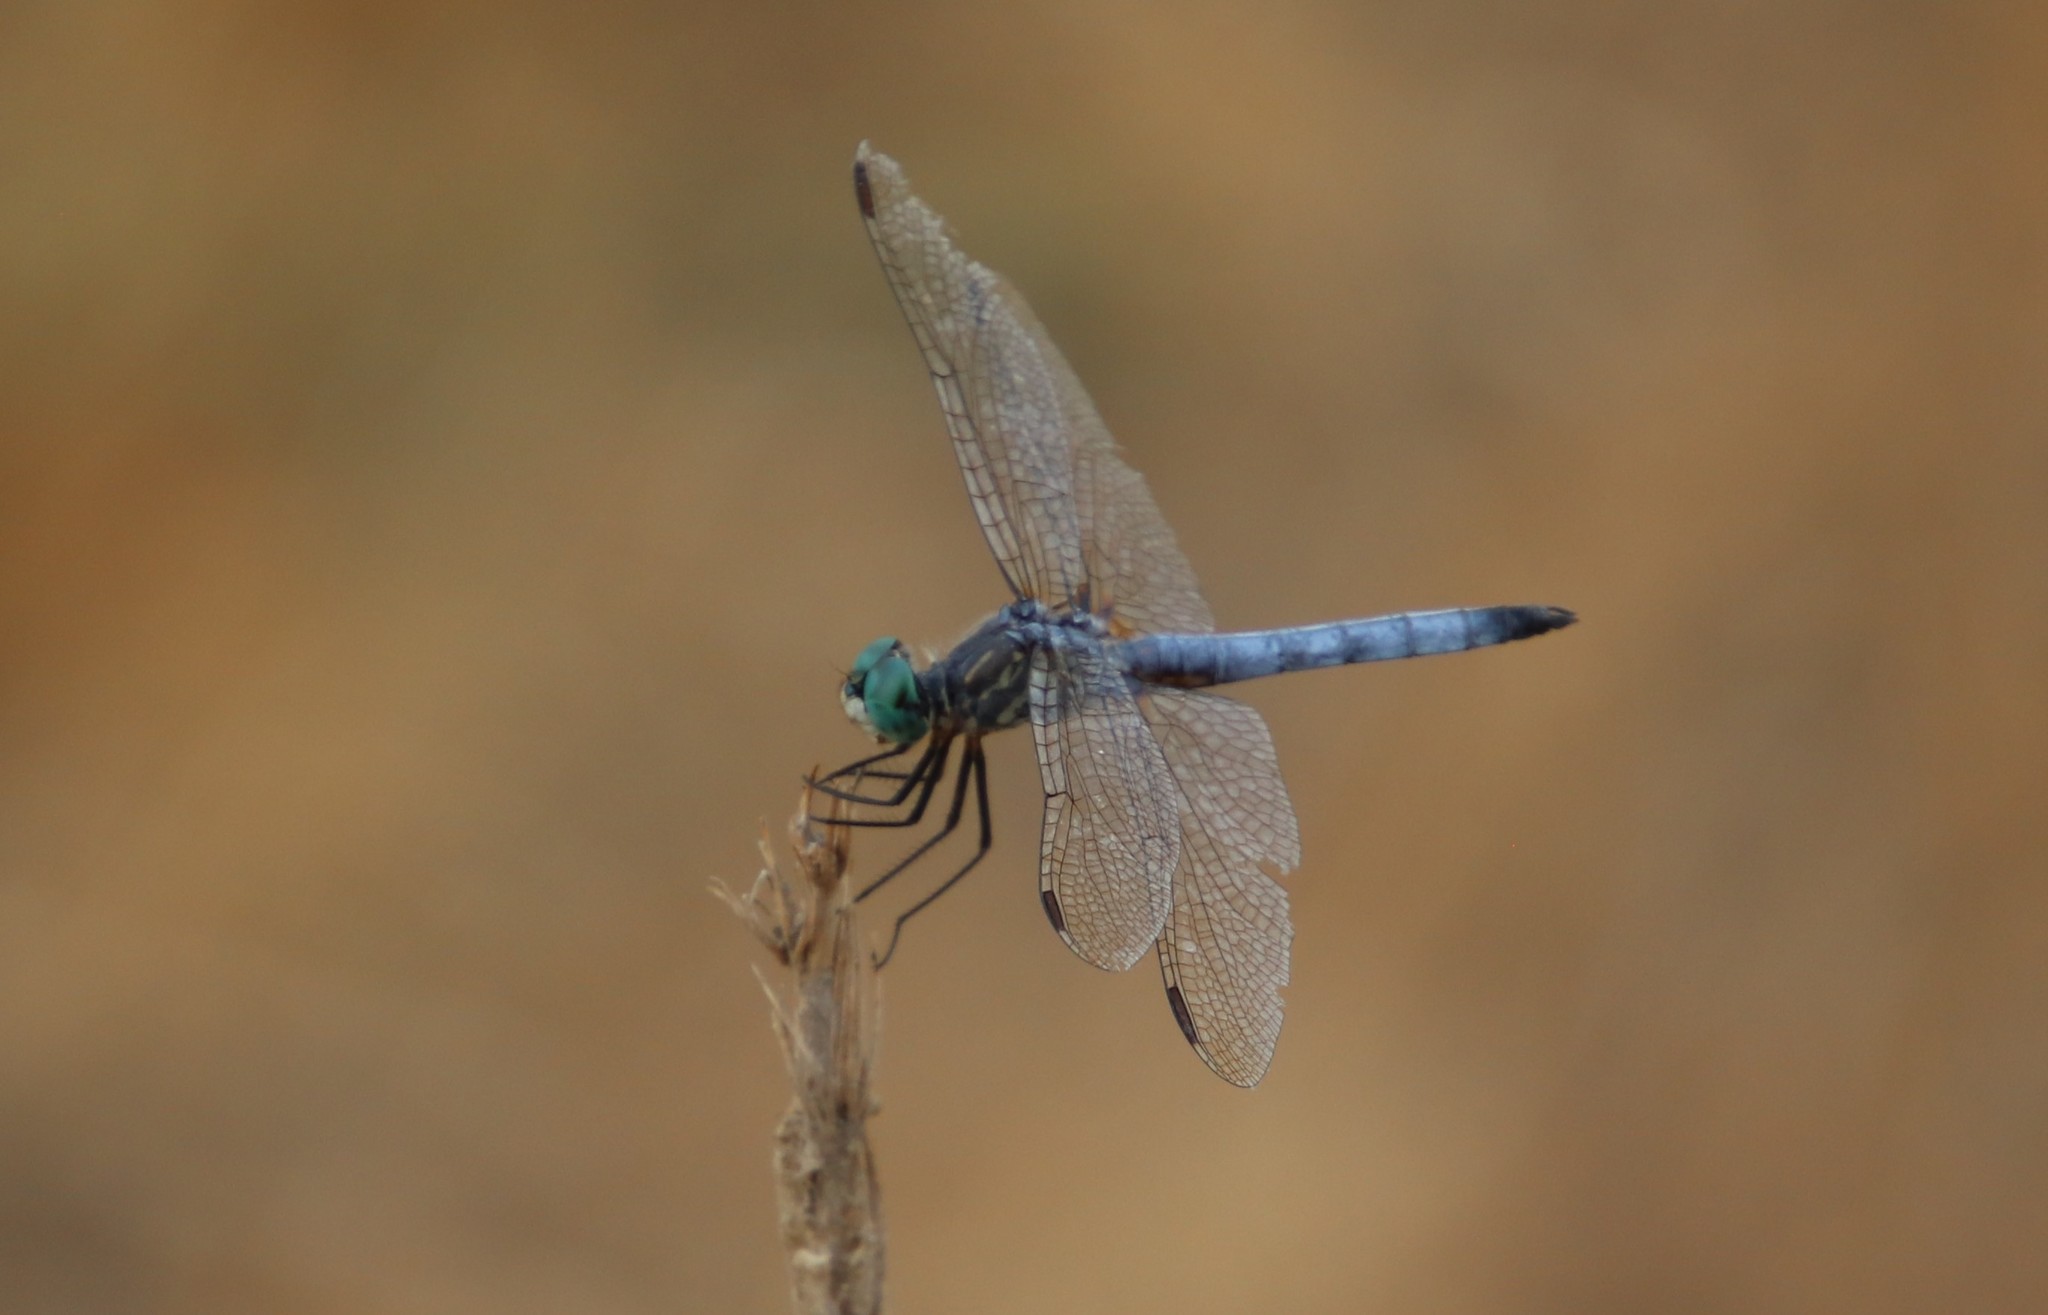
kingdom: Animalia
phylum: Arthropoda
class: Insecta
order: Odonata
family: Libellulidae
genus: Pachydiplax
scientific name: Pachydiplax longipennis
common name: Blue dasher
